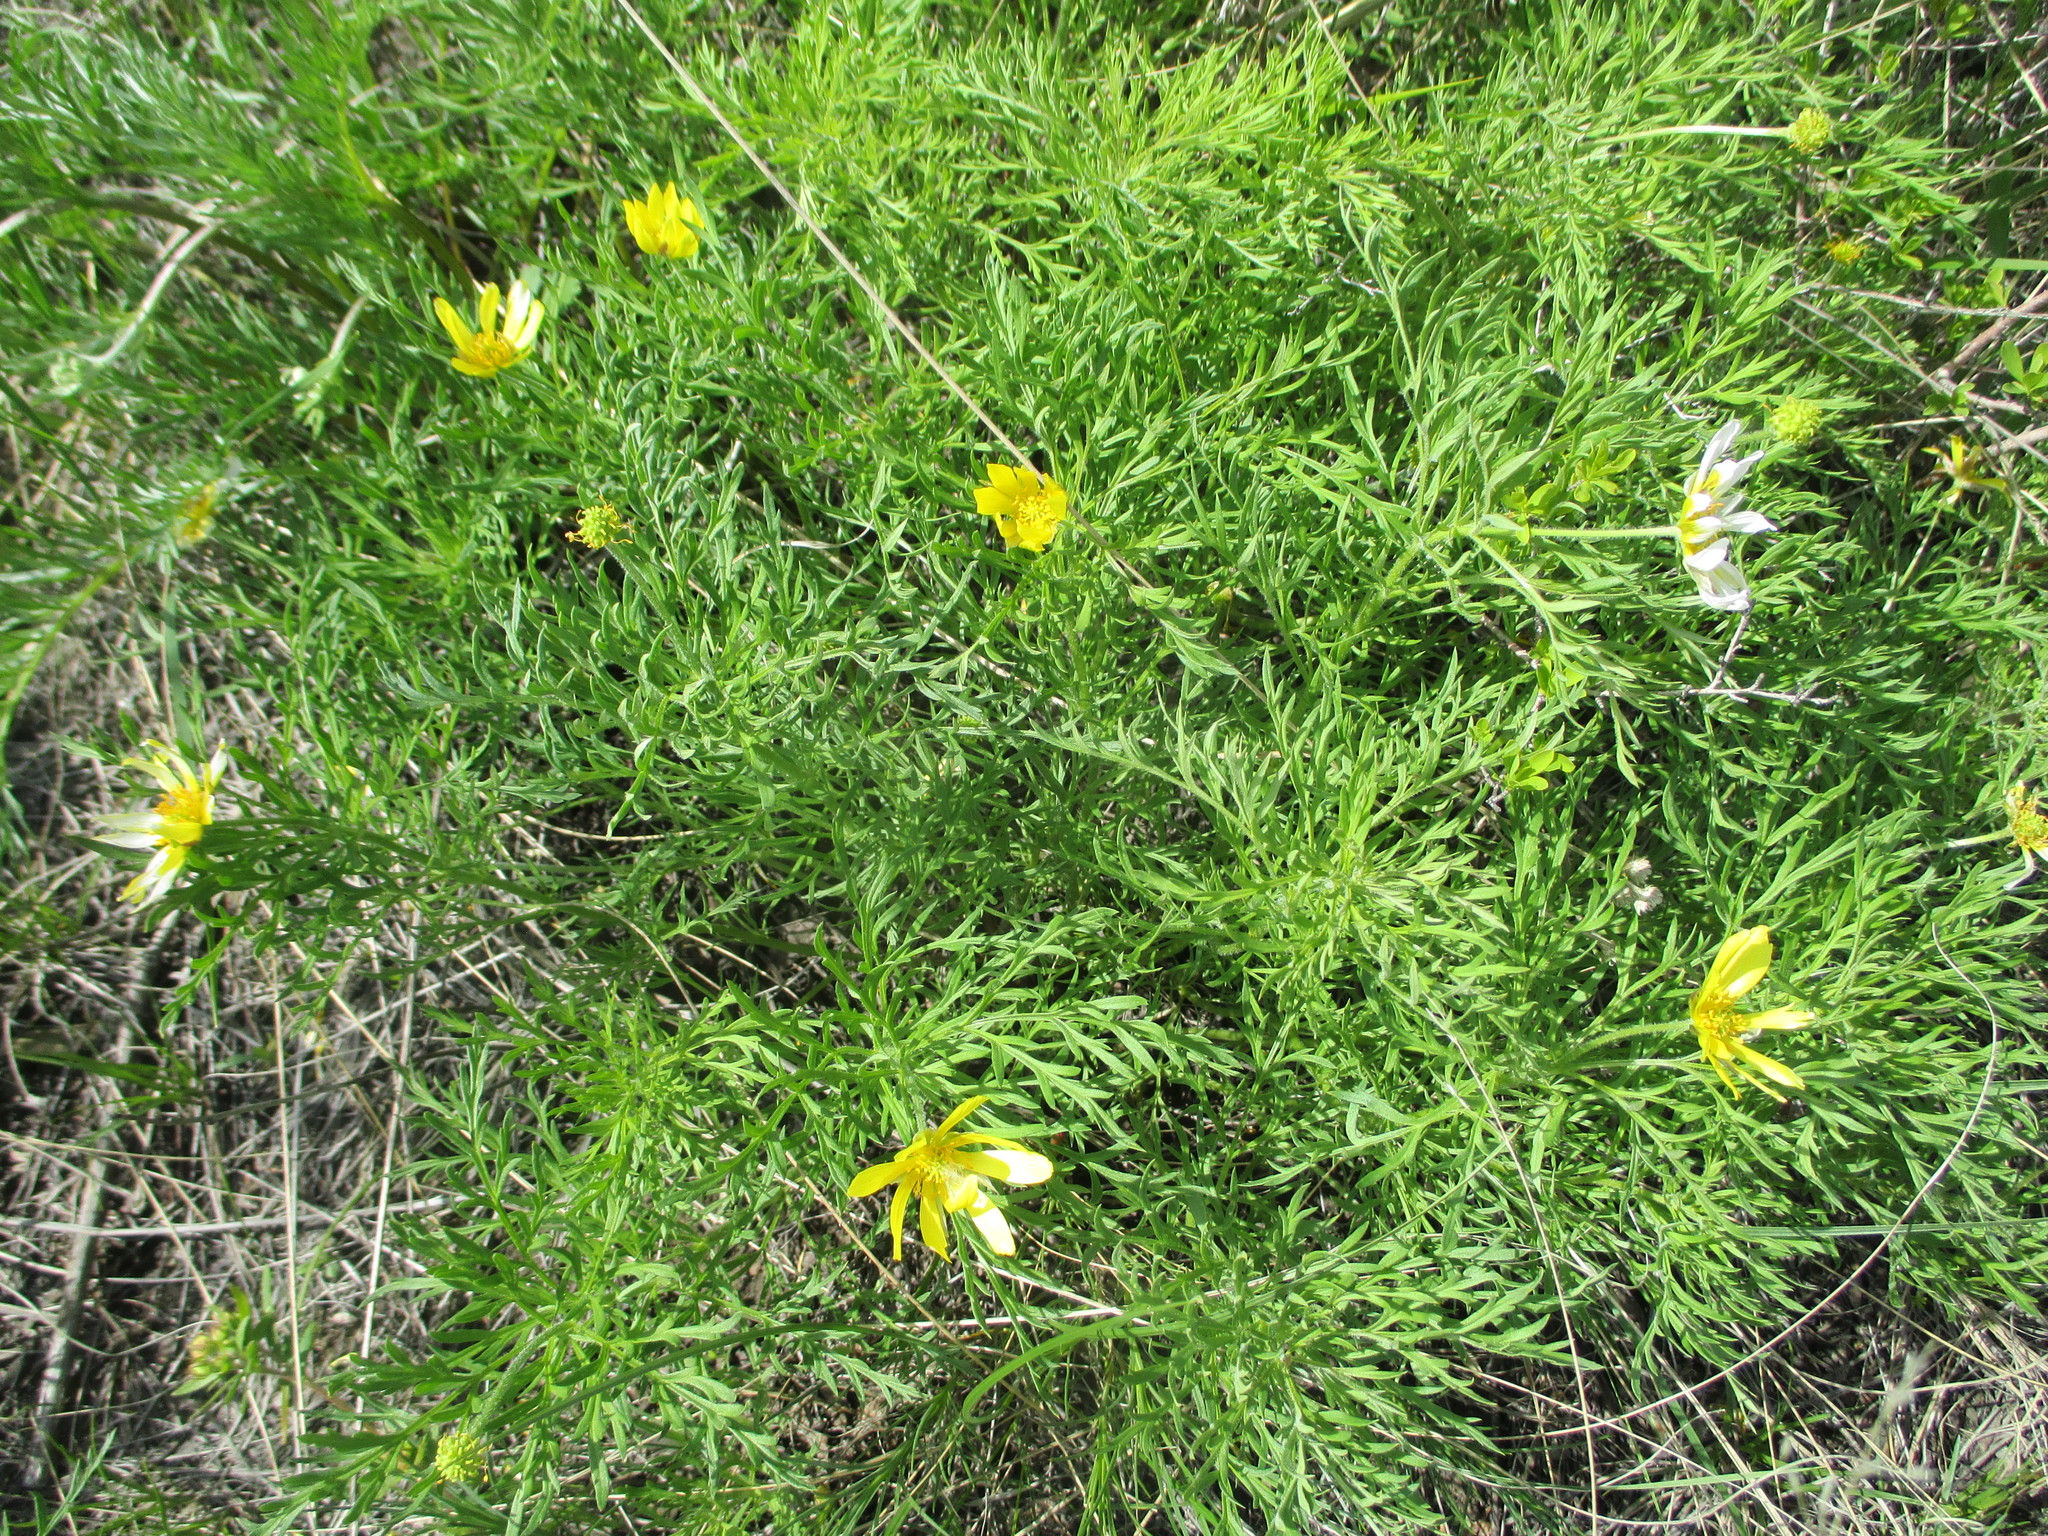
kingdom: Plantae
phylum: Tracheophyta
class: Magnoliopsida
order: Ranunculales
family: Ranunculaceae
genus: Adonis
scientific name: Adonis volgensis
